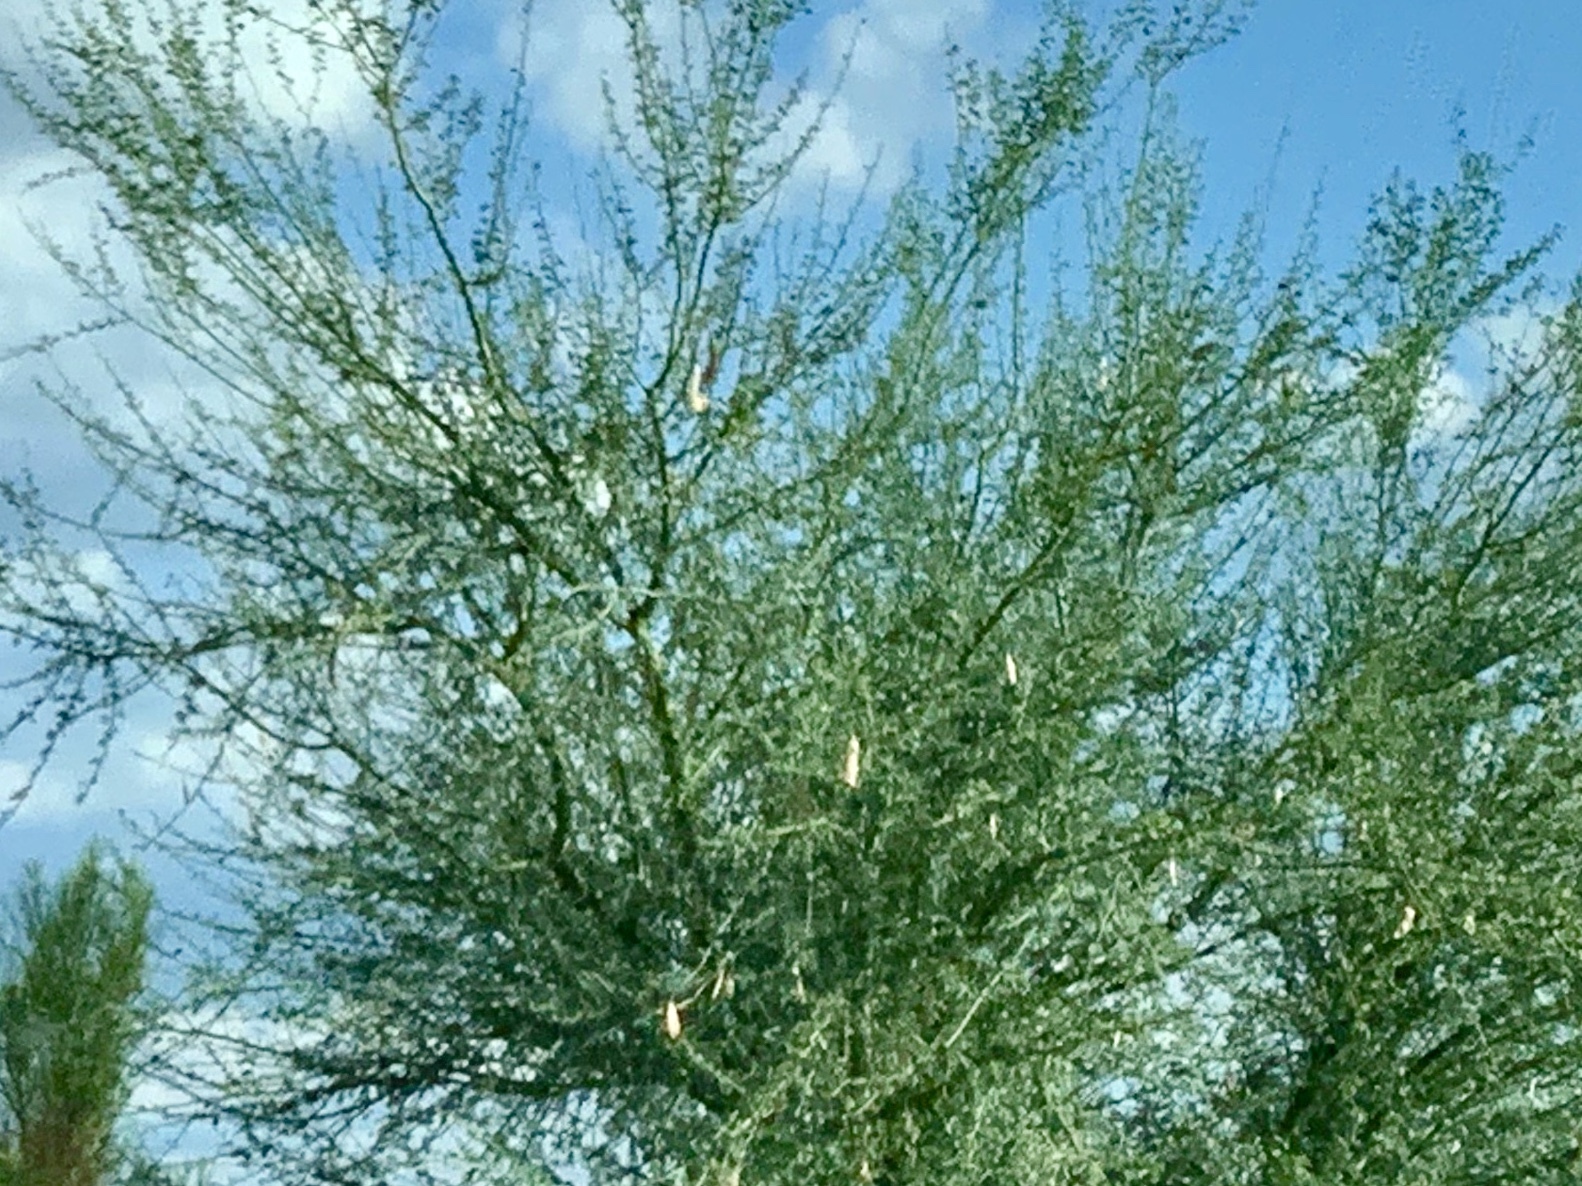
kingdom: Plantae
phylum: Tracheophyta
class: Magnoliopsida
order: Fabales
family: Fabaceae
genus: Parkinsonia
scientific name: Parkinsonia florida
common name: Blue paloverde
